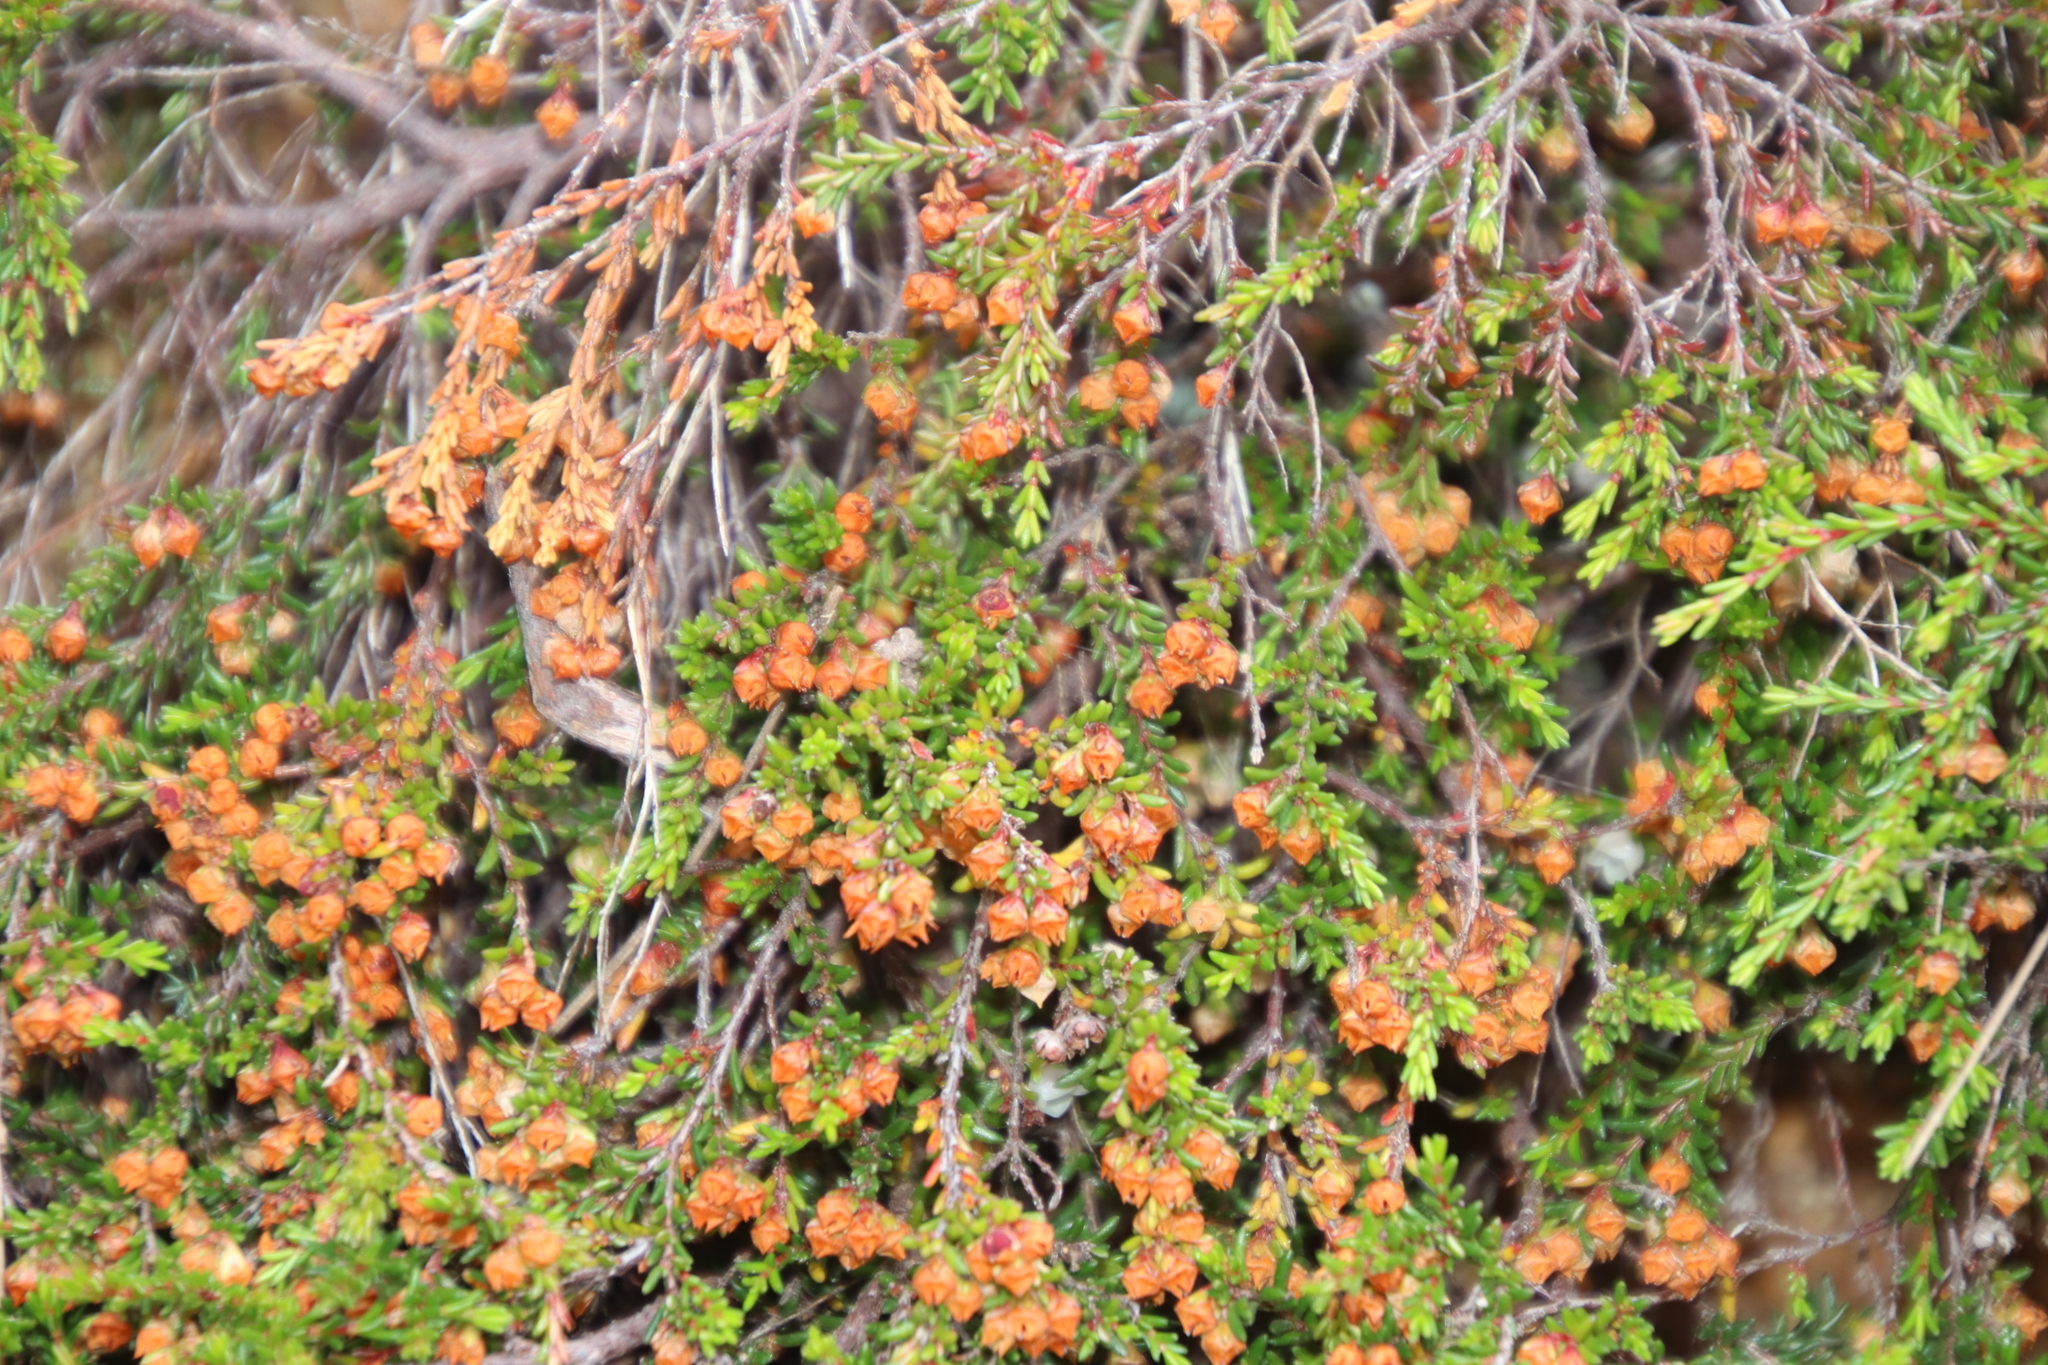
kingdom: Plantae
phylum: Tracheophyta
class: Magnoliopsida
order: Ericales
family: Ericaceae
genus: Erica
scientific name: Erica tenuis
